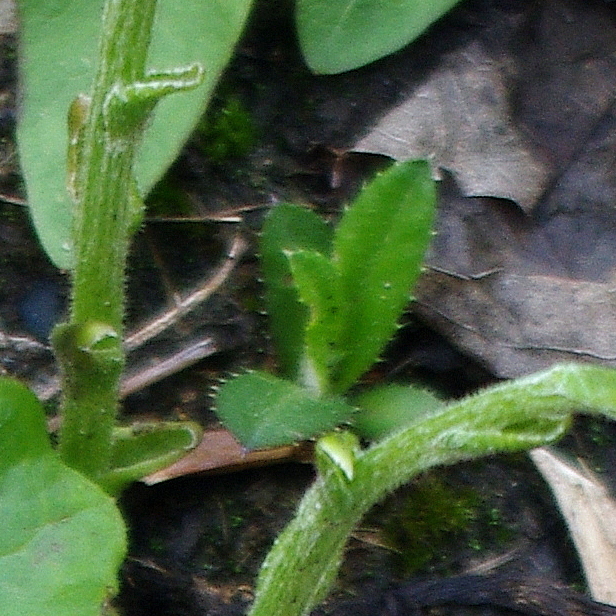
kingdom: Plantae
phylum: Tracheophyta
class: Magnoliopsida
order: Asterales
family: Asteraceae
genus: Cirsium
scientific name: Cirsium arvense
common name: Creeping thistle
